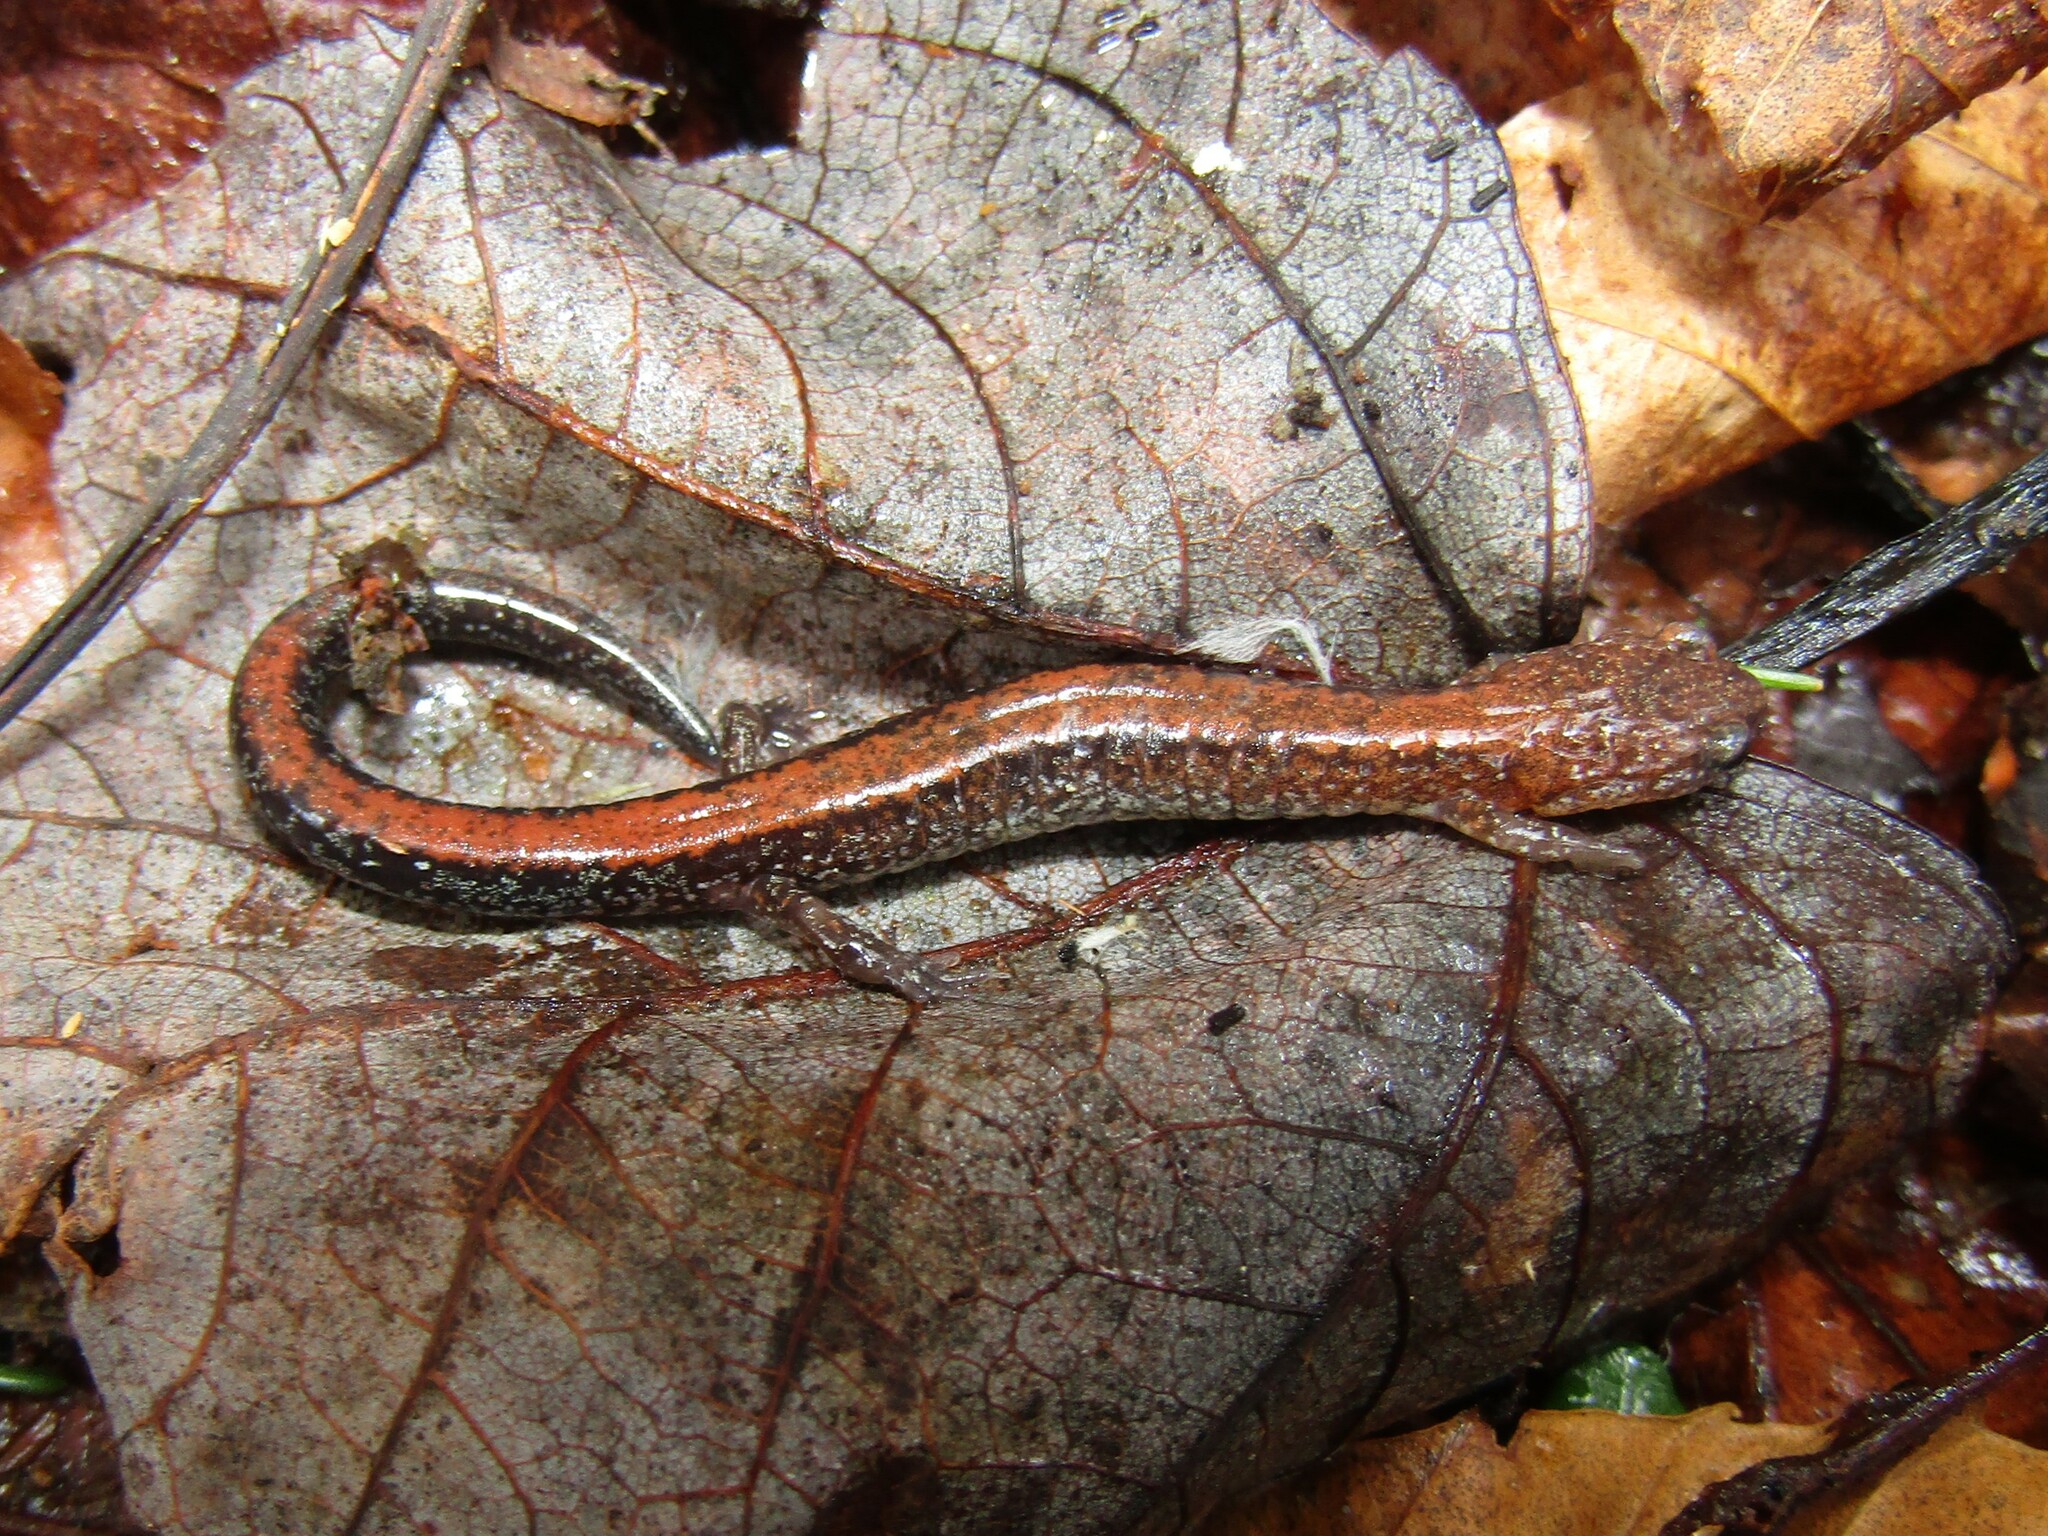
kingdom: Animalia
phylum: Chordata
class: Amphibia
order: Caudata
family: Plethodontidae
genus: Plethodon
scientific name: Plethodon cinereus
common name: Redback salamander
